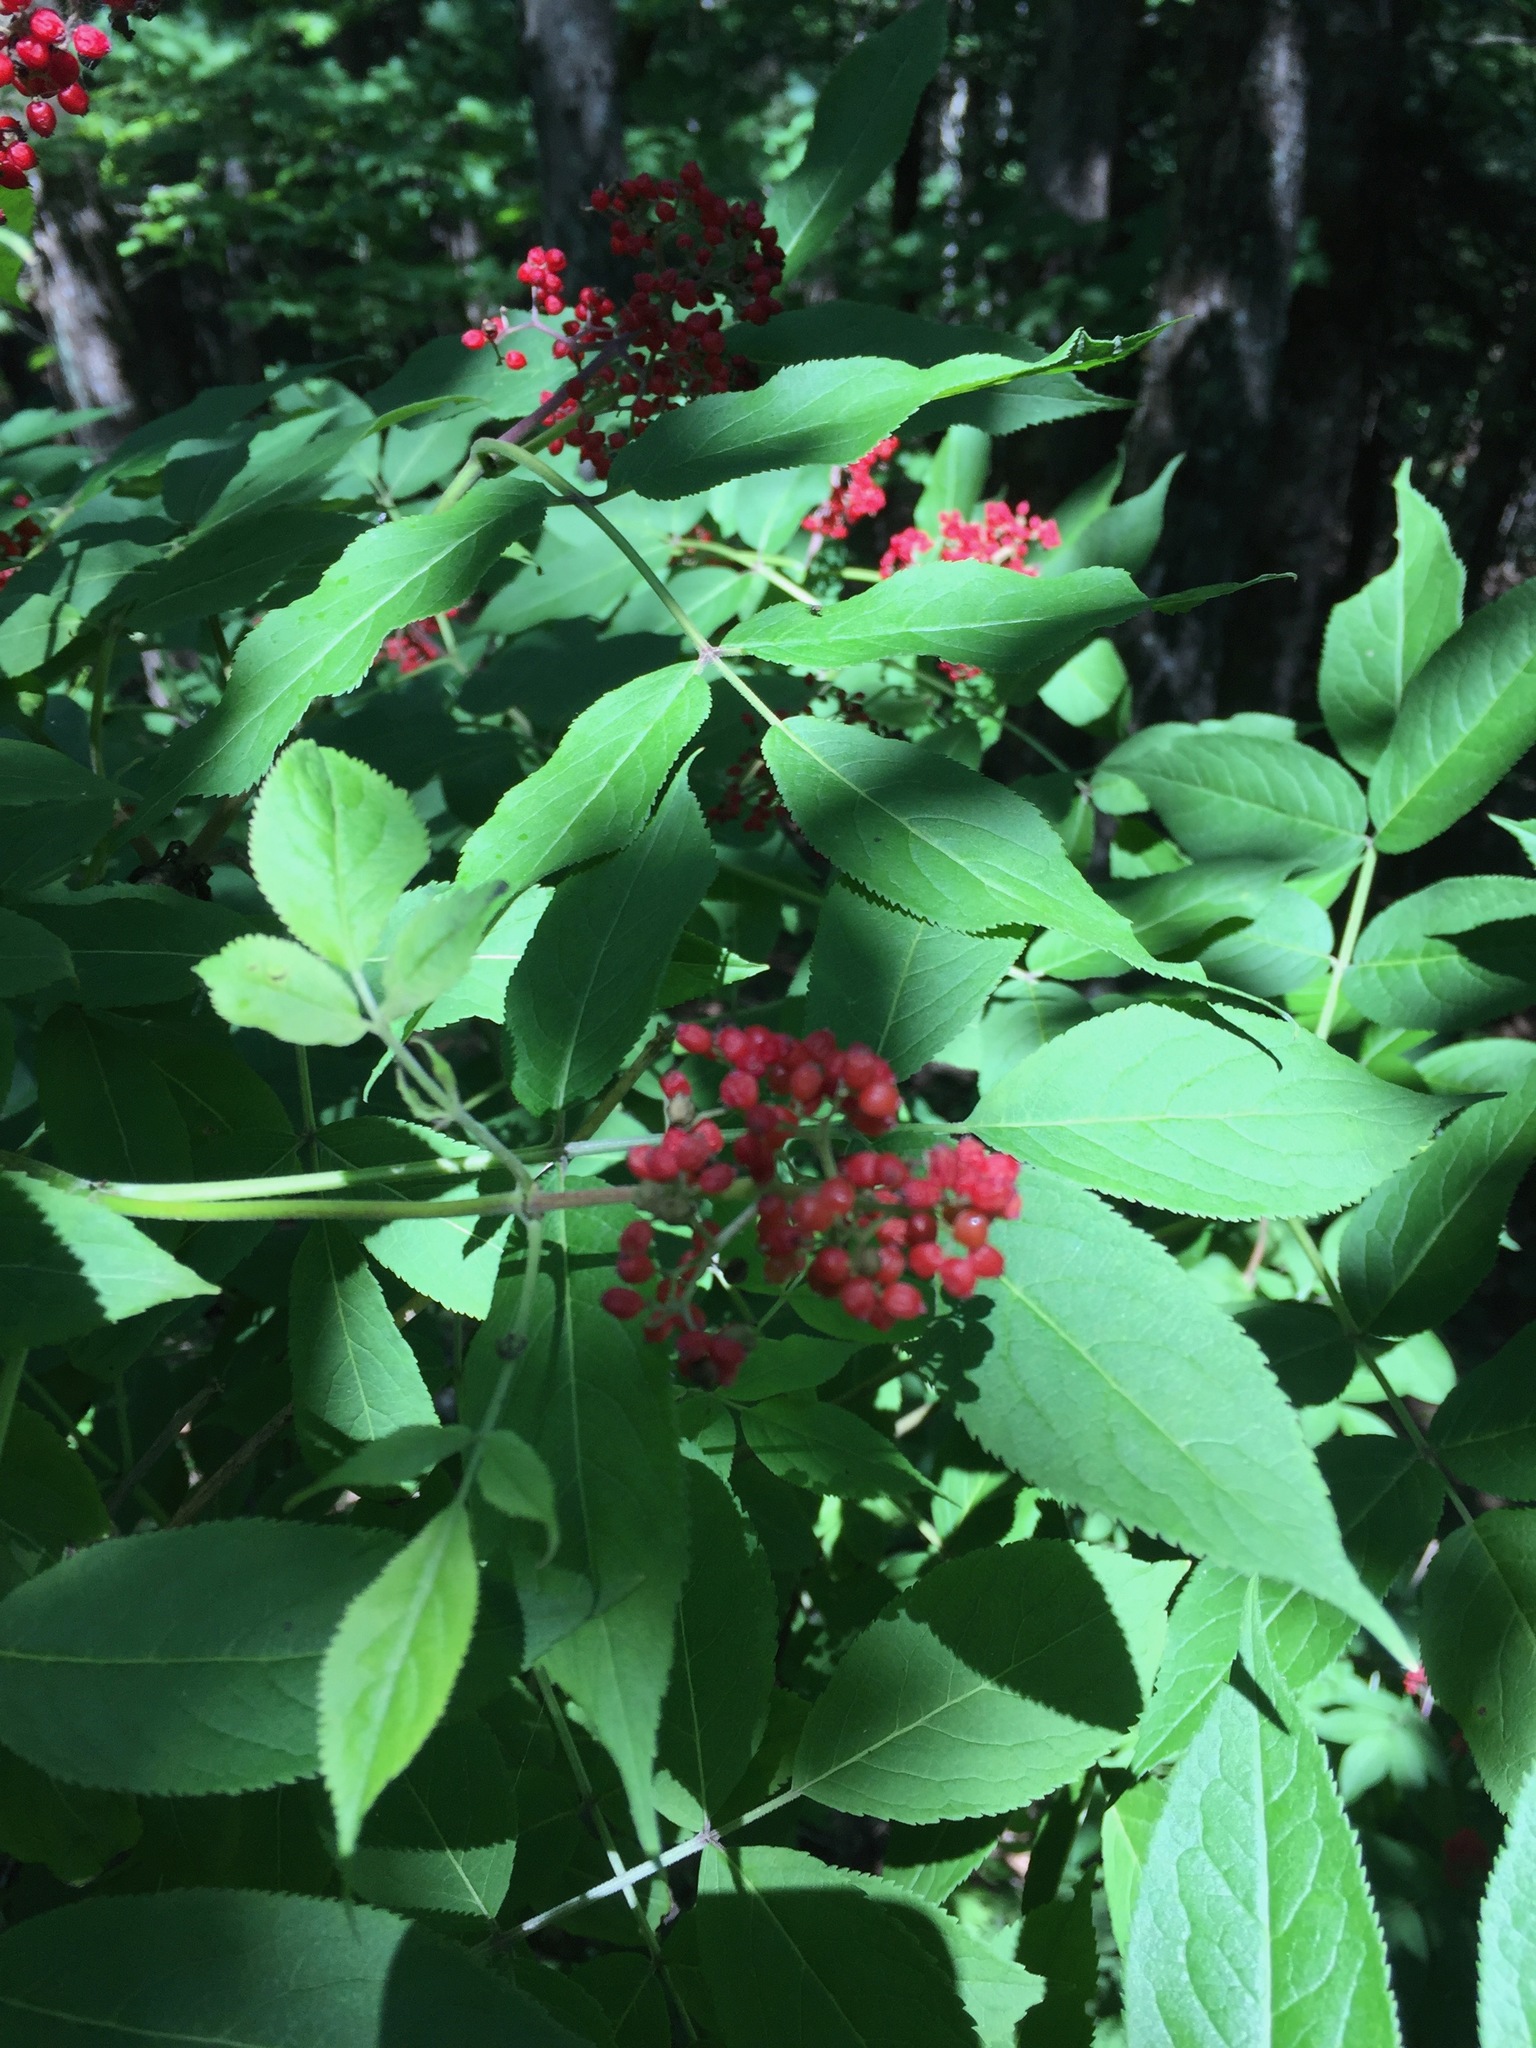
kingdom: Plantae
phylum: Tracheophyta
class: Magnoliopsida
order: Dipsacales
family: Viburnaceae
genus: Sambucus
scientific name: Sambucus racemosa
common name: Red-berried elder
